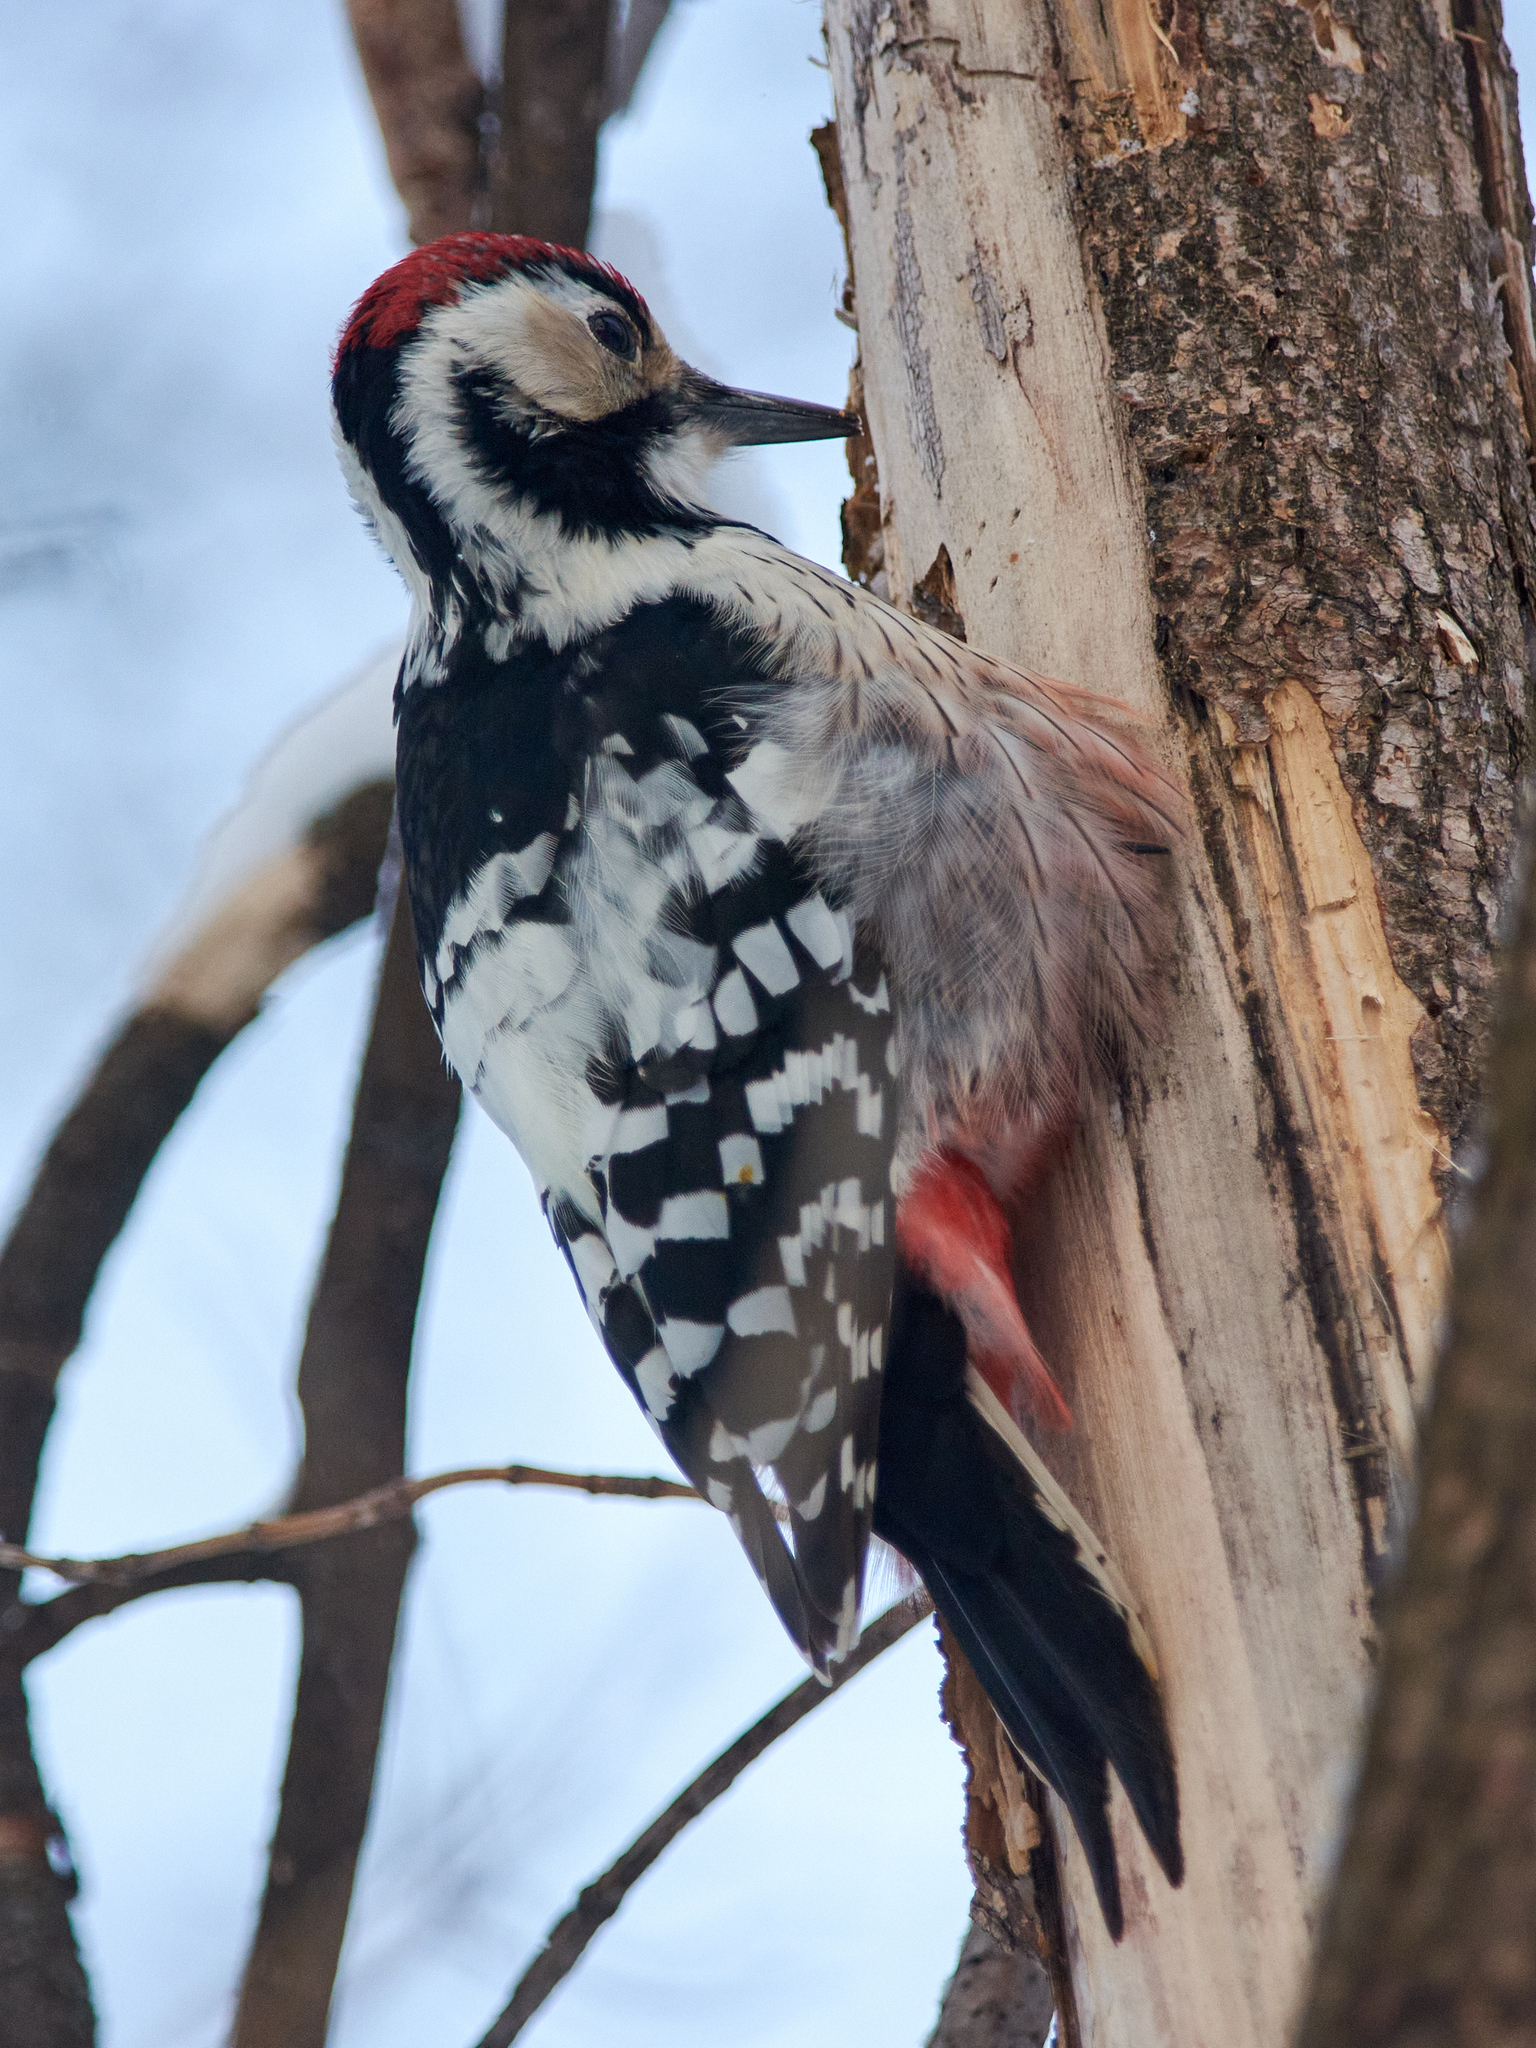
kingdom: Animalia
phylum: Chordata
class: Aves
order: Piciformes
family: Picidae
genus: Dendrocopos
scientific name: Dendrocopos leucotos
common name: White-backed woodpecker
